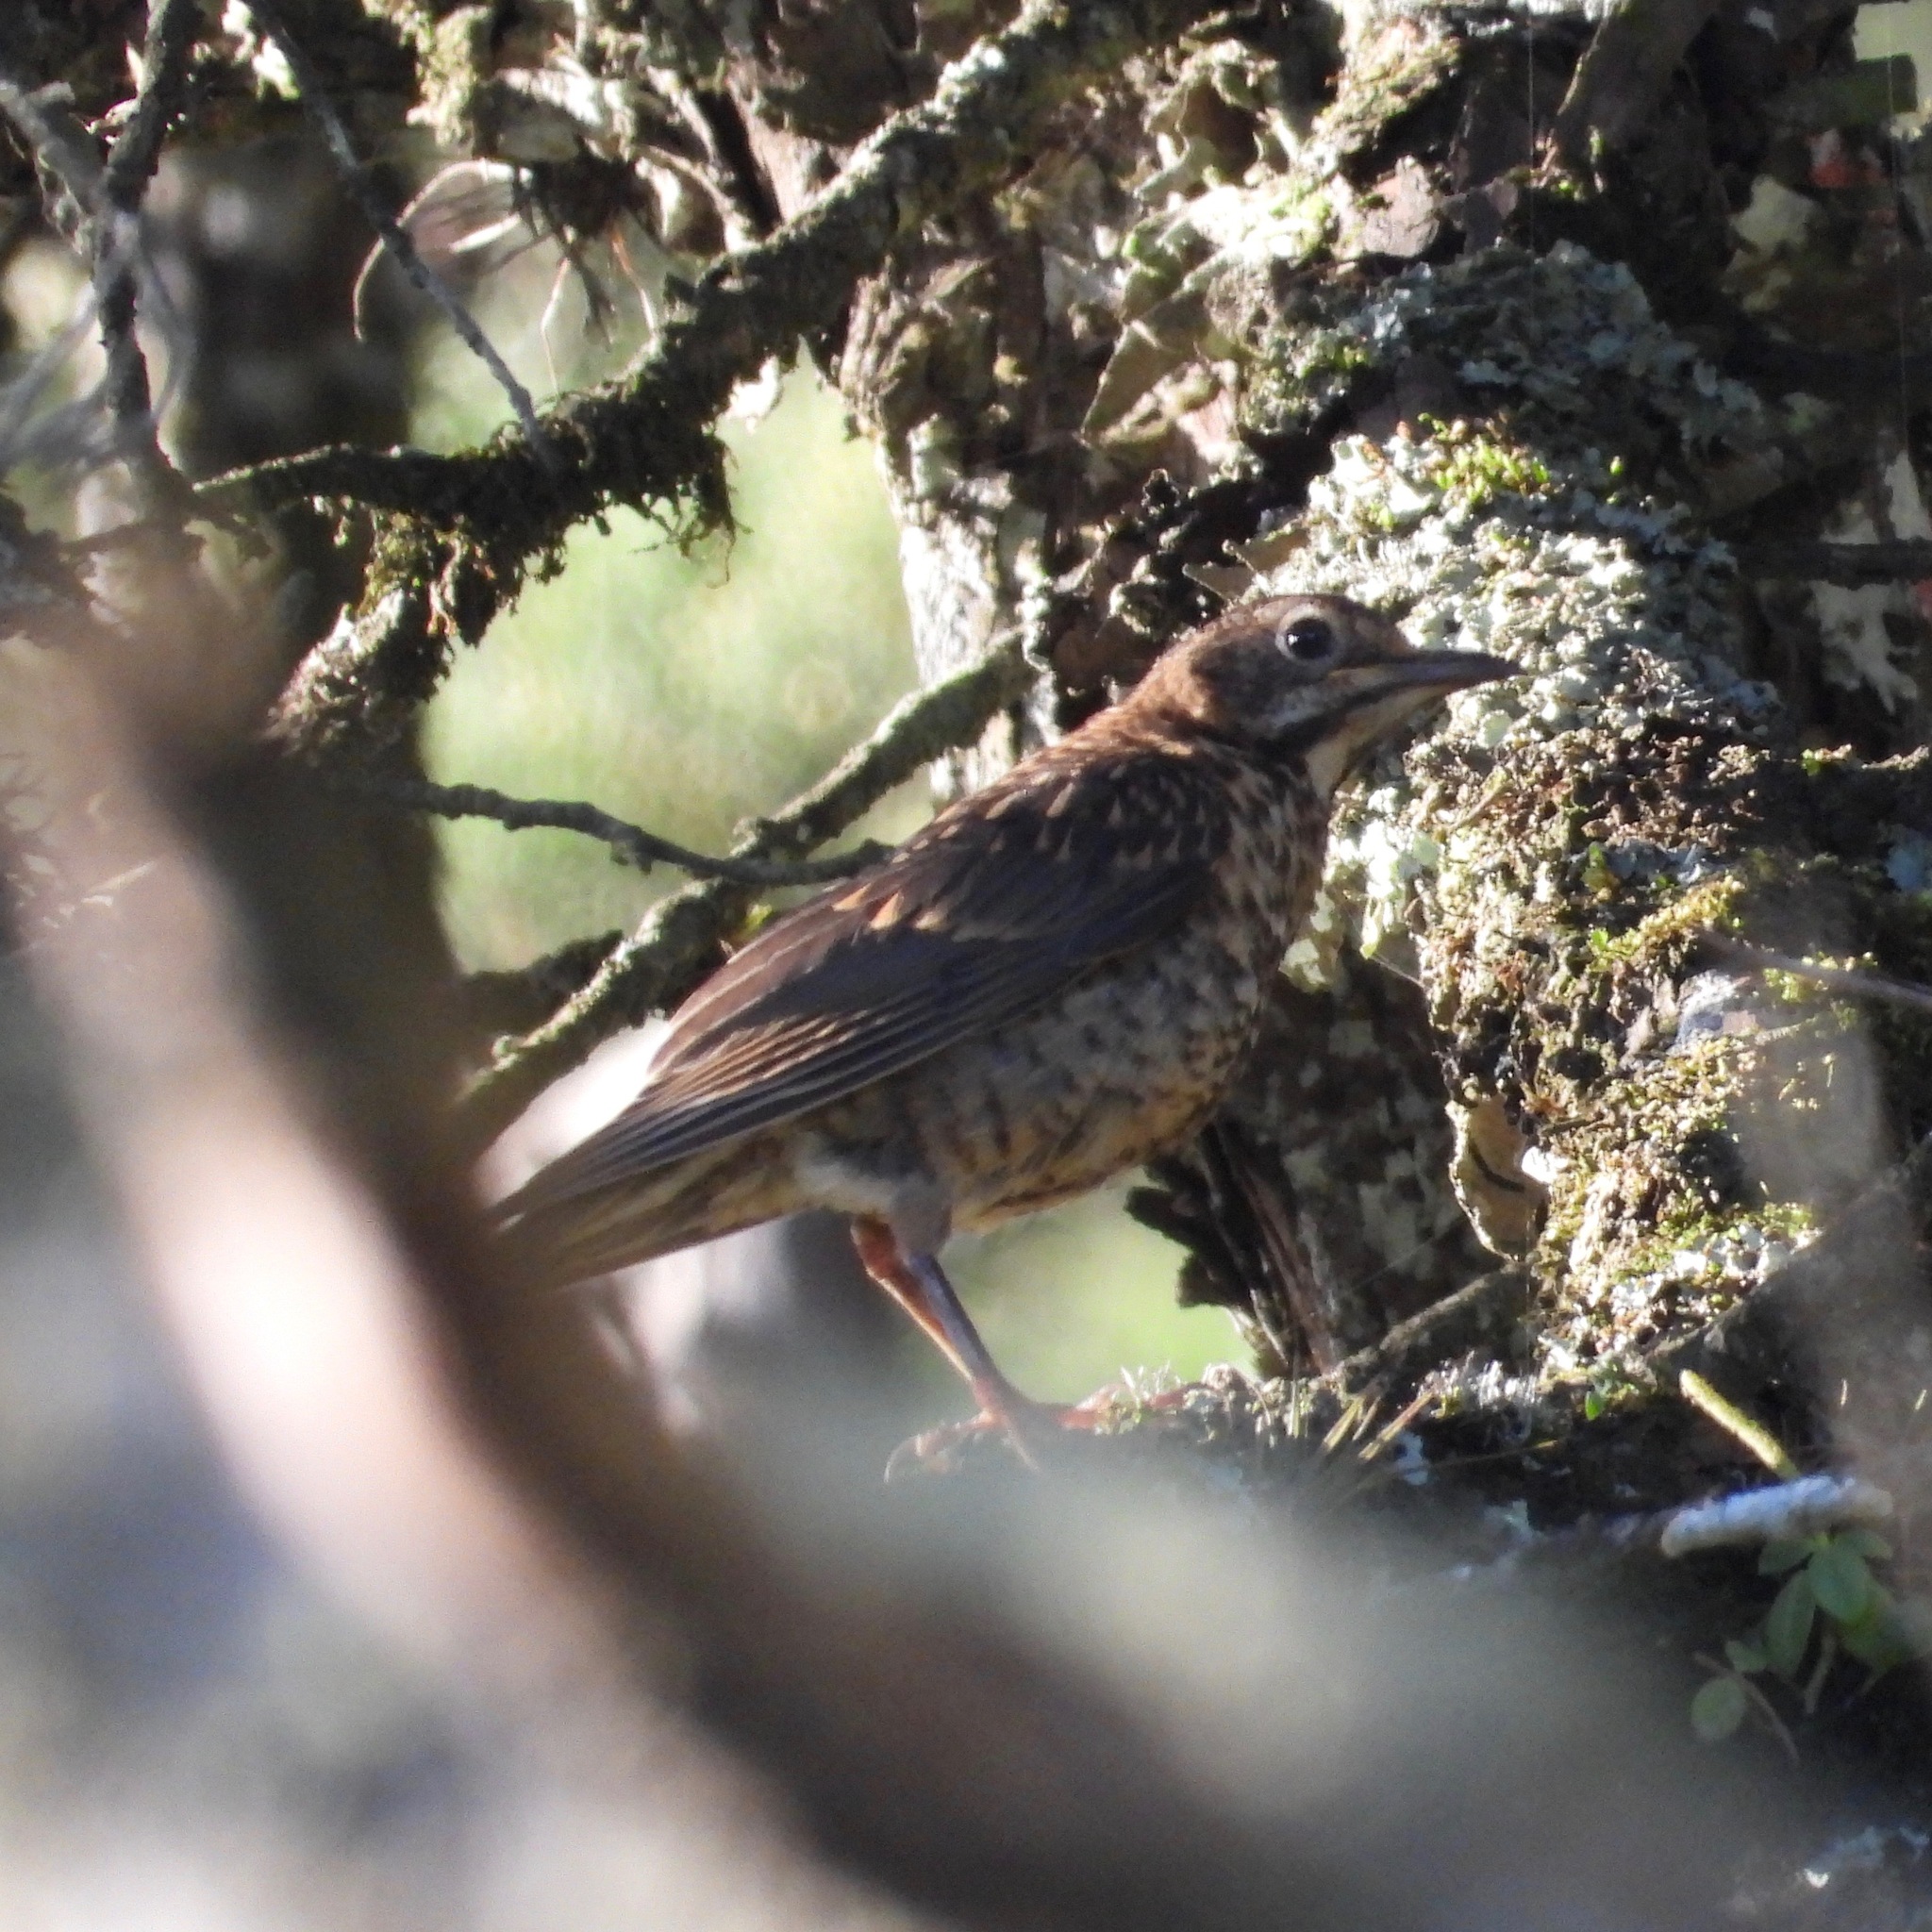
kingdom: Animalia
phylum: Chordata
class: Aves
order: Passeriformes
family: Turdidae
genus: Turdus
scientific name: Turdus rufitorques
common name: Rufous-collared thrush
